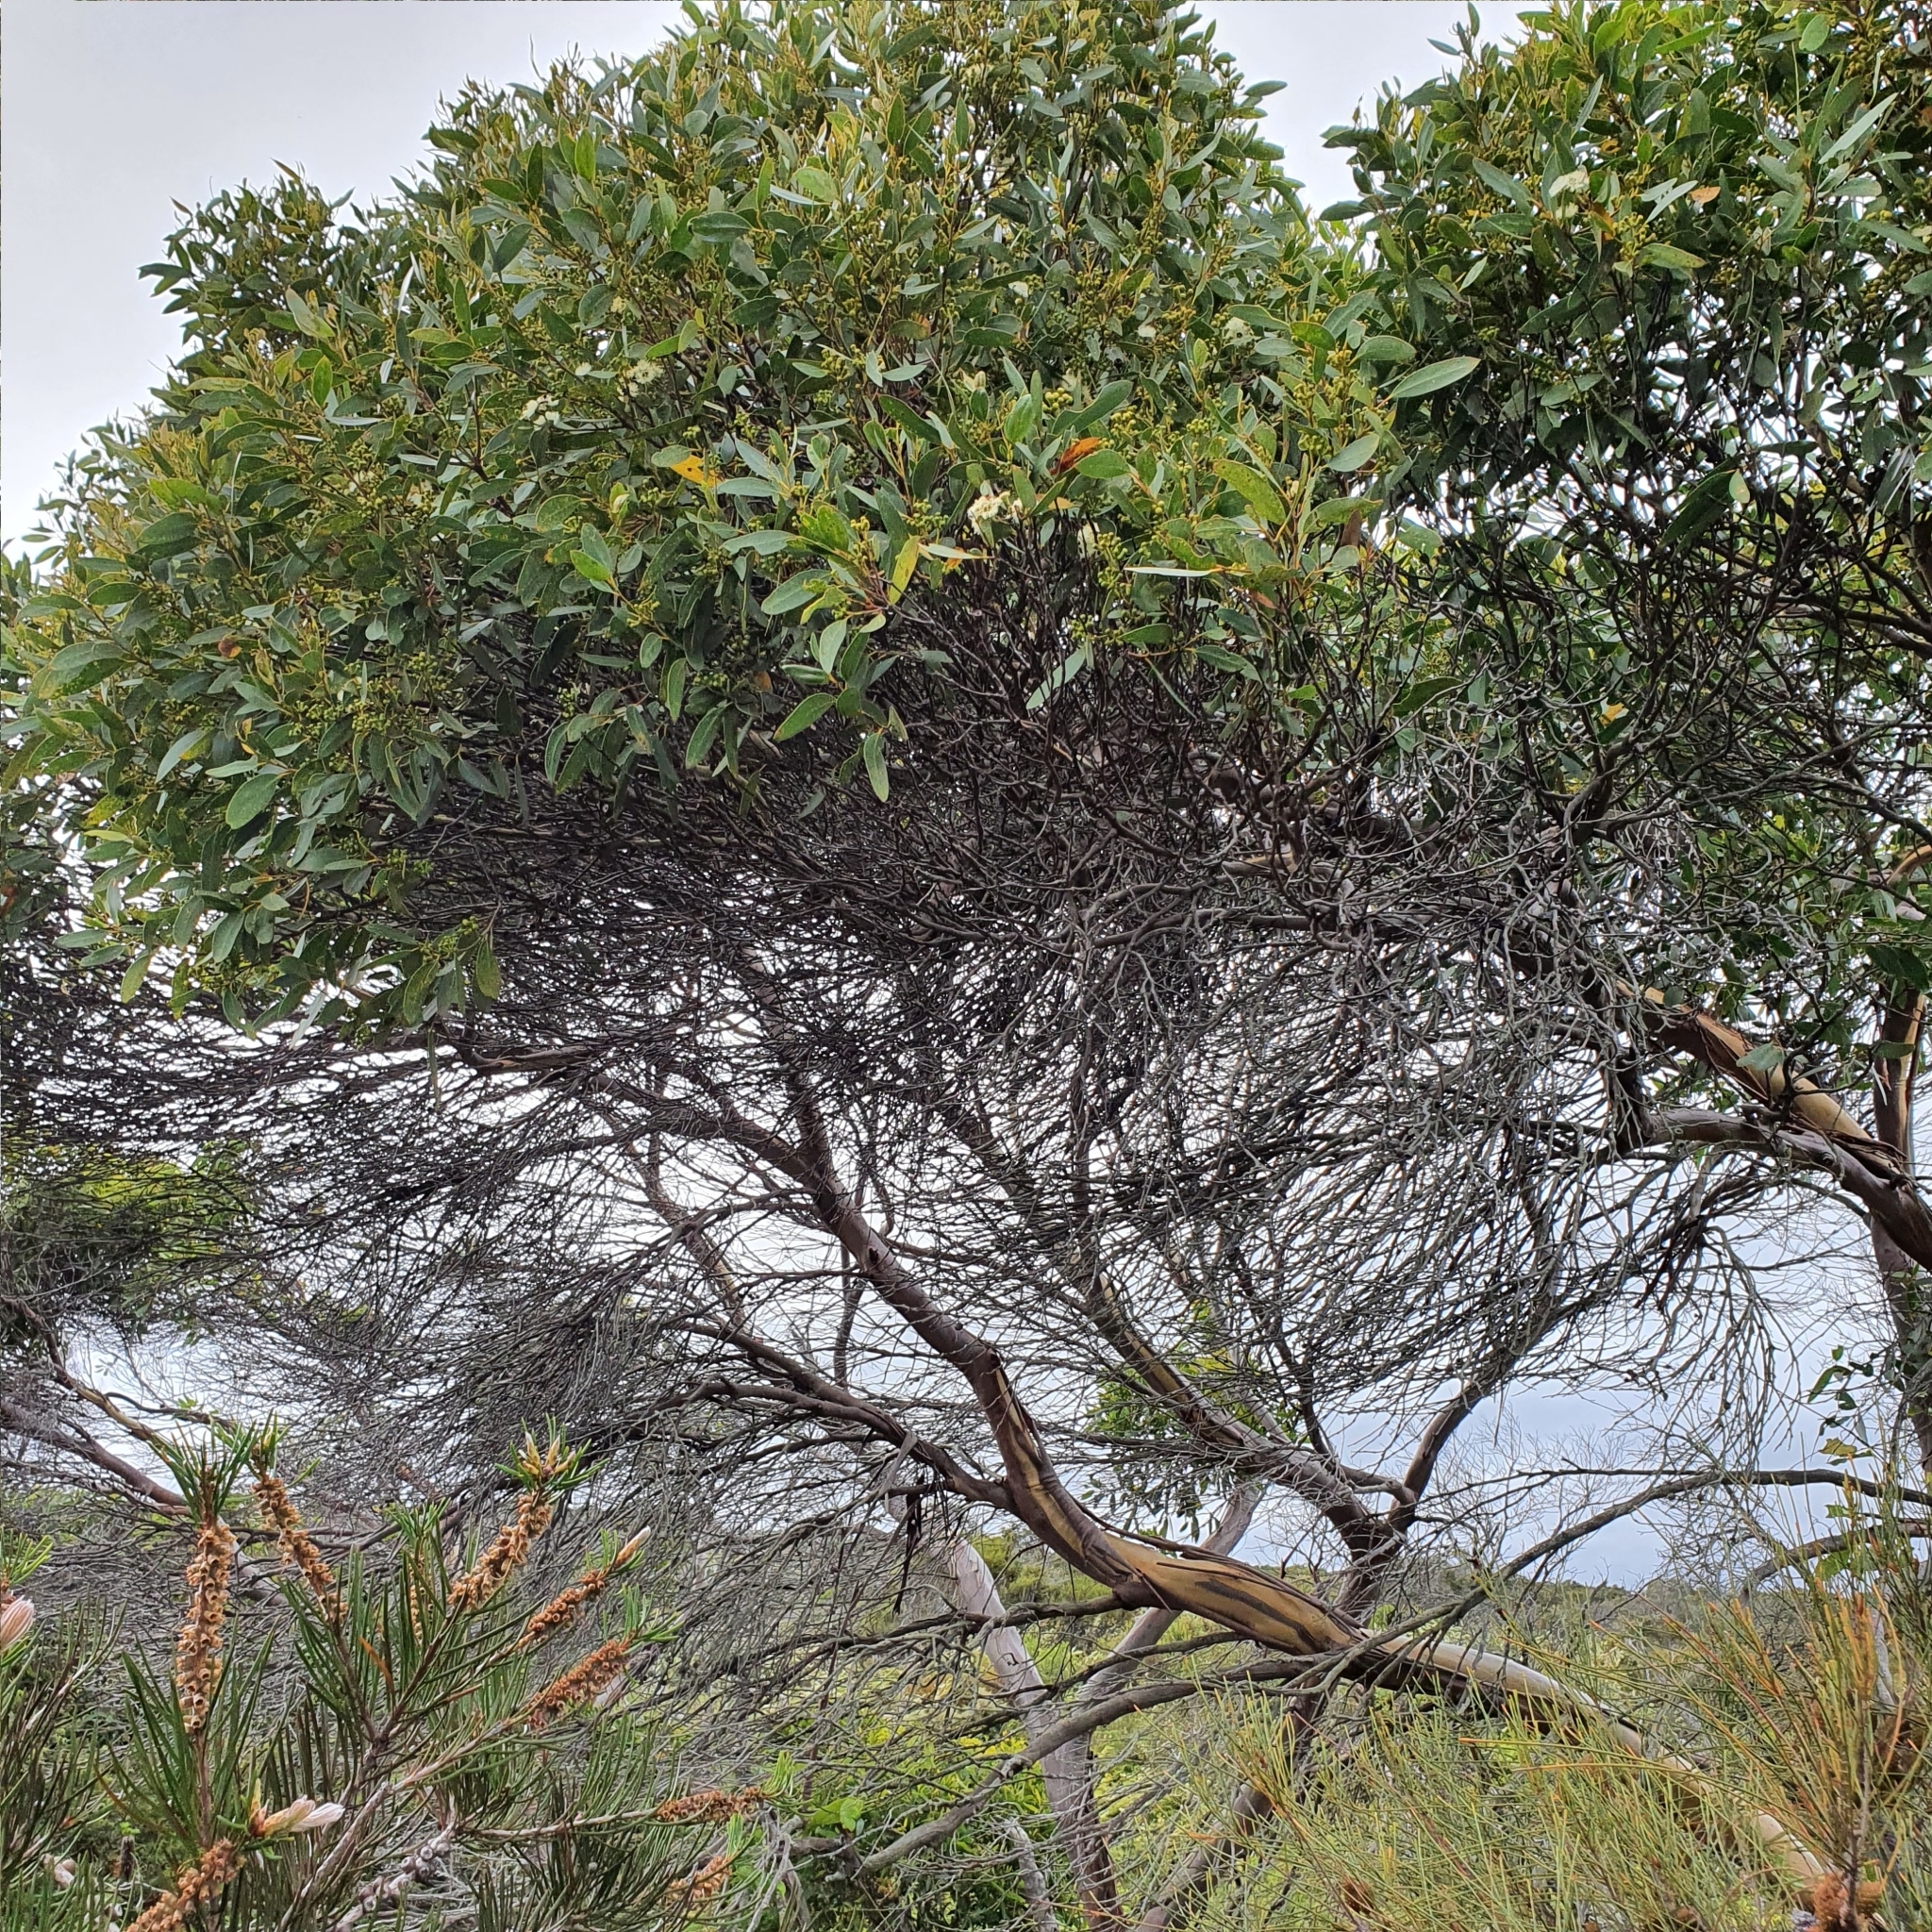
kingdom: Plantae
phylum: Tracheophyta
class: Magnoliopsida
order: Myrtales
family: Myrtaceae
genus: Eucalyptus
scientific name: Eucalyptus burgessiana
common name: Falconbridge mallee-ash
